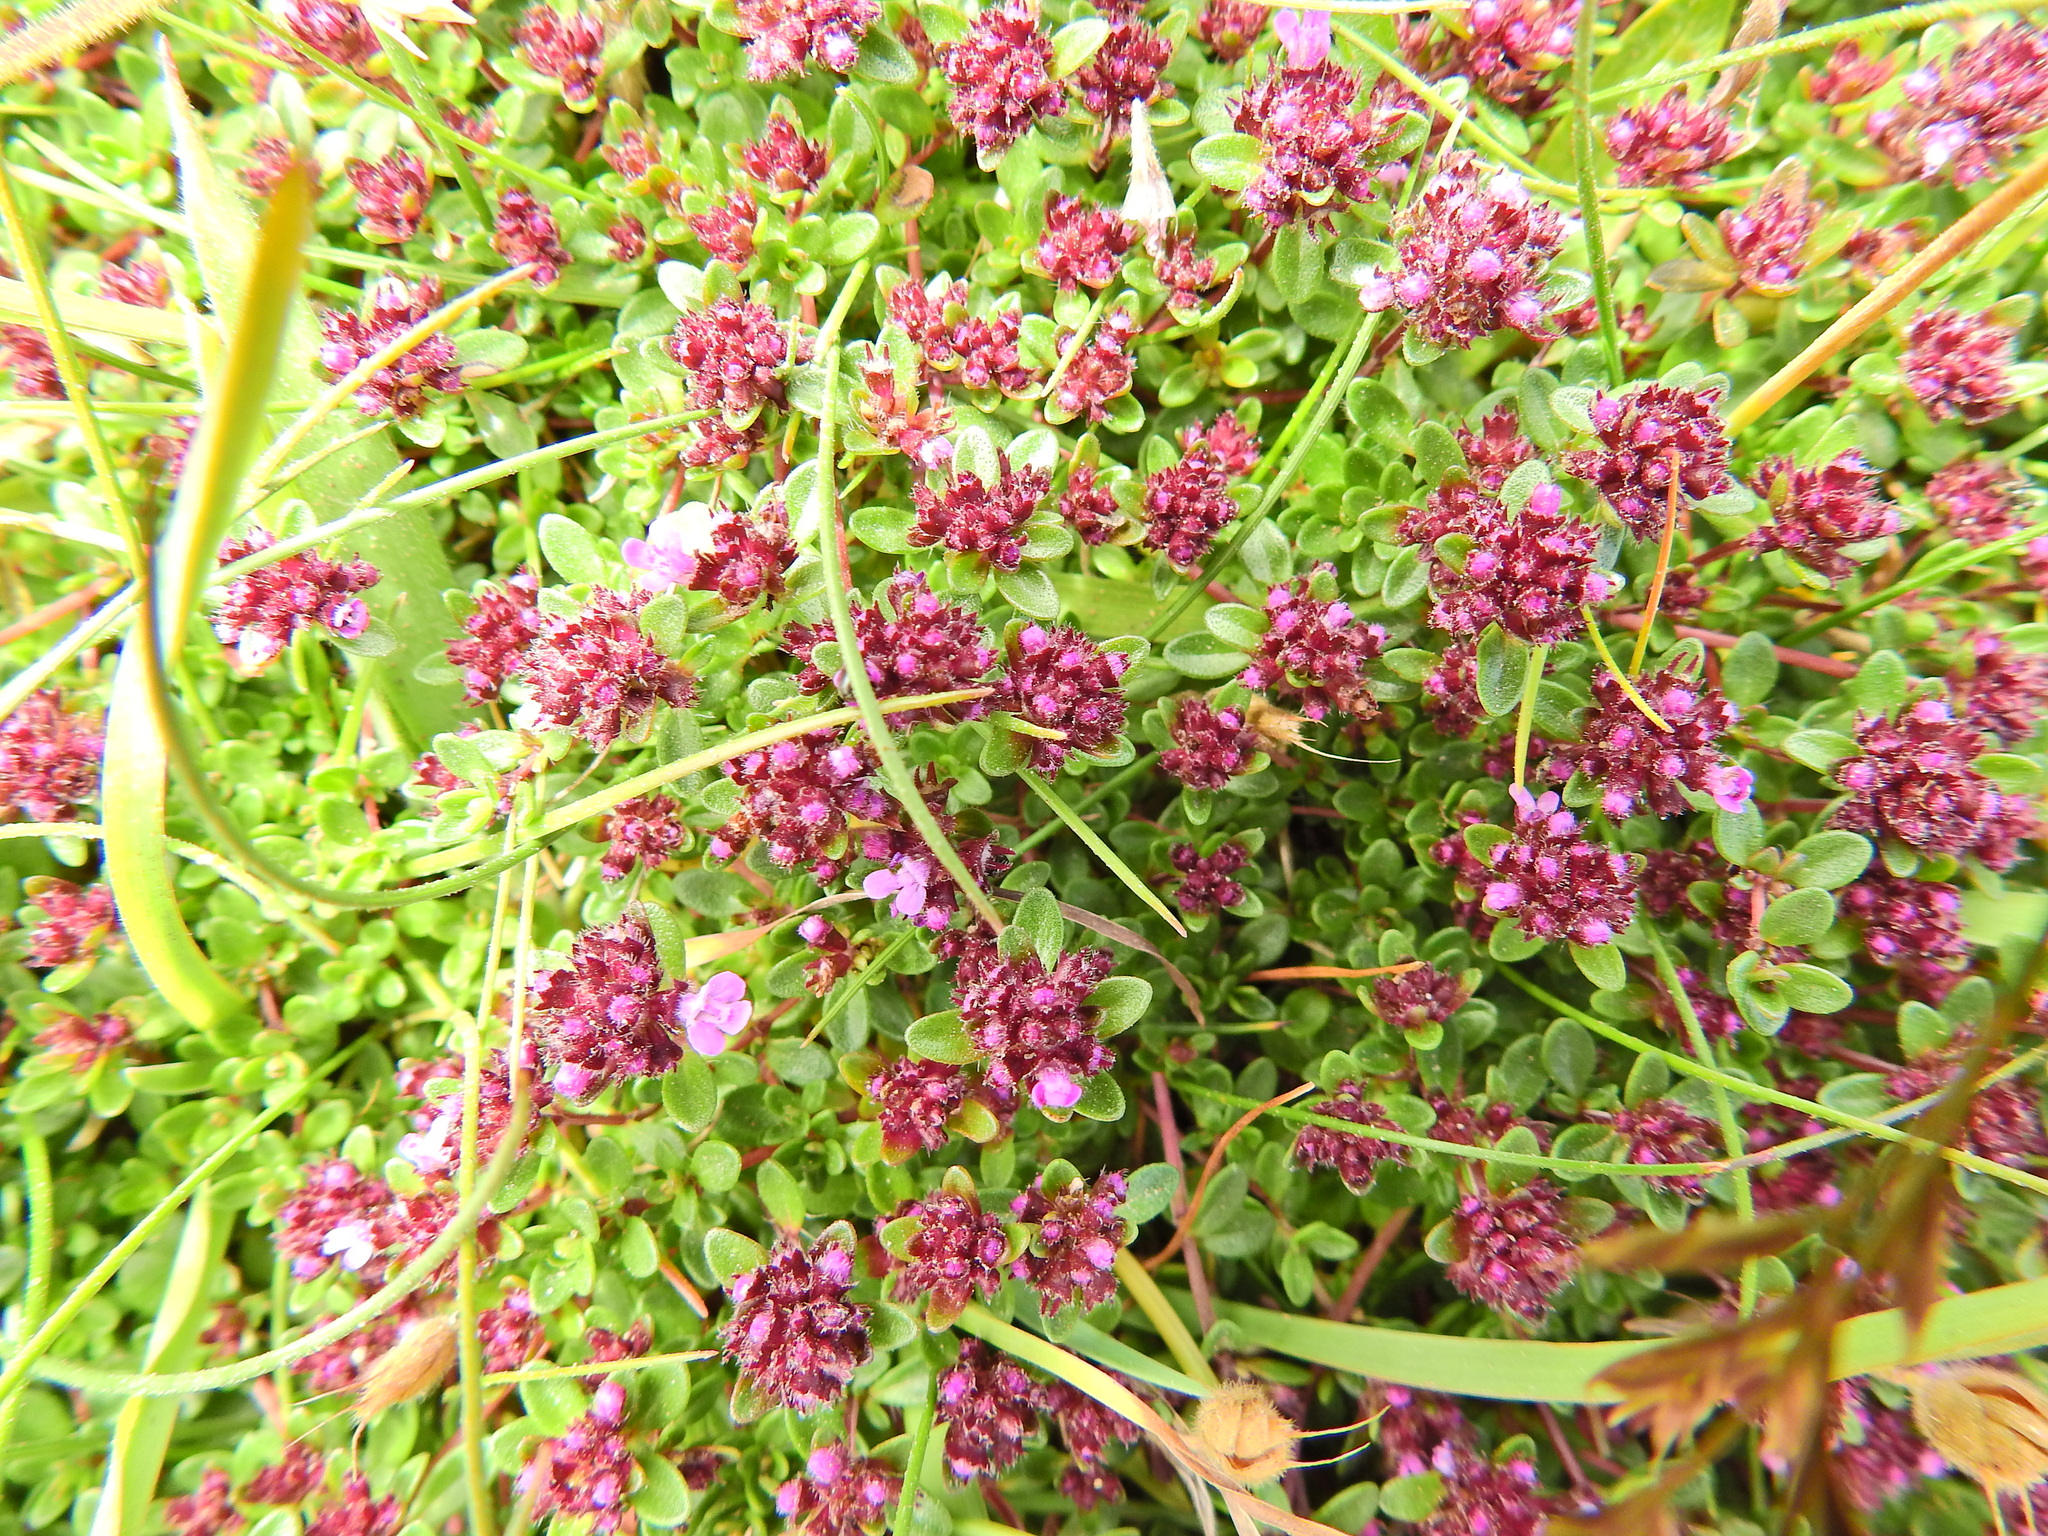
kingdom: Plantae
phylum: Tracheophyta
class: Magnoliopsida
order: Lamiales
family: Lamiaceae
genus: Thymus
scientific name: Thymus praecox
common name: Wild thyme
